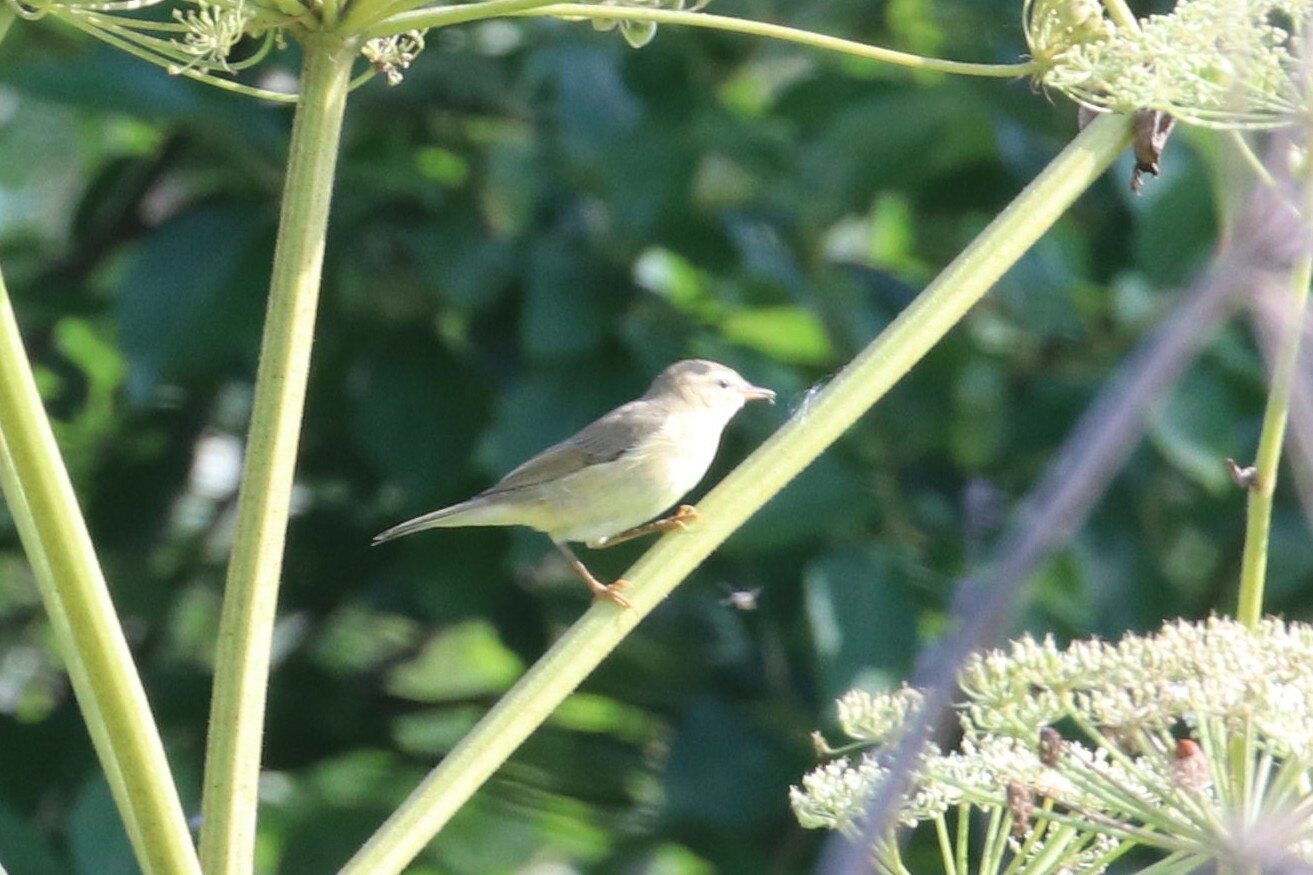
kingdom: Animalia
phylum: Chordata
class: Aves
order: Passeriformes
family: Phylloscopidae
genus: Phylloscopus
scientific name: Phylloscopus trochilus
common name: Willow warbler
